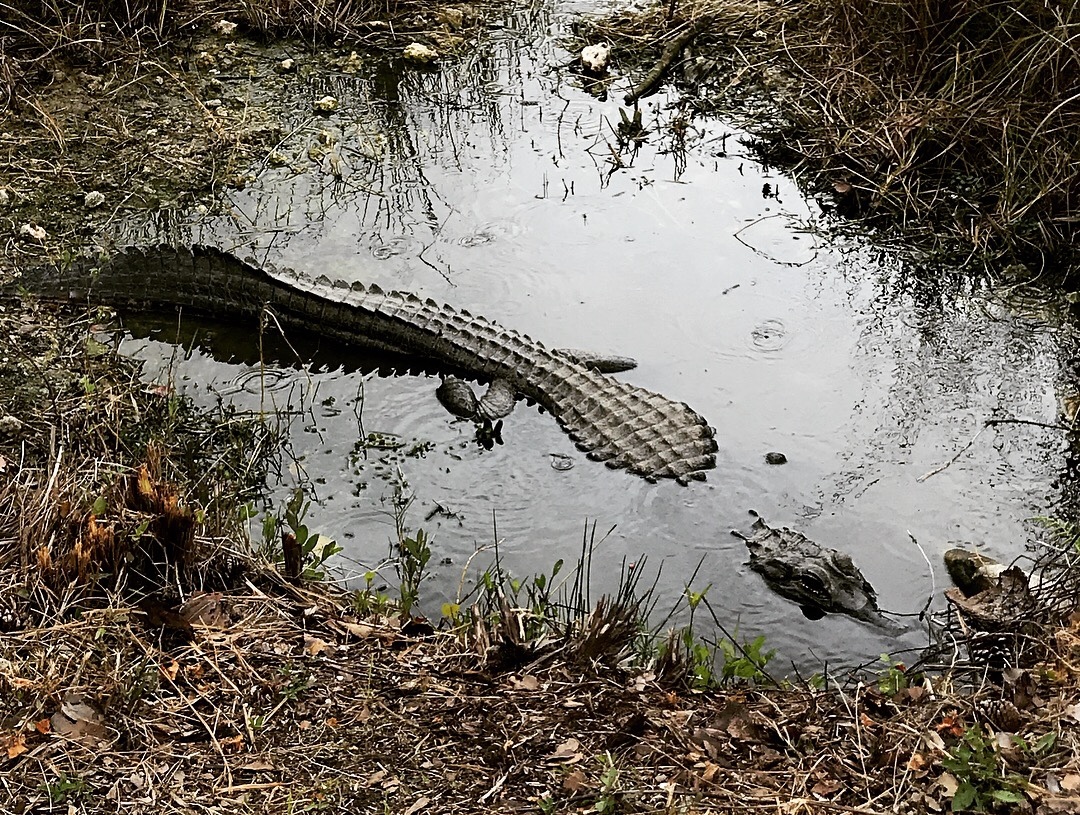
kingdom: Animalia
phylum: Chordata
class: Crocodylia
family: Alligatoridae
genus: Alligator
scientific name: Alligator mississippiensis
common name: American alligator
